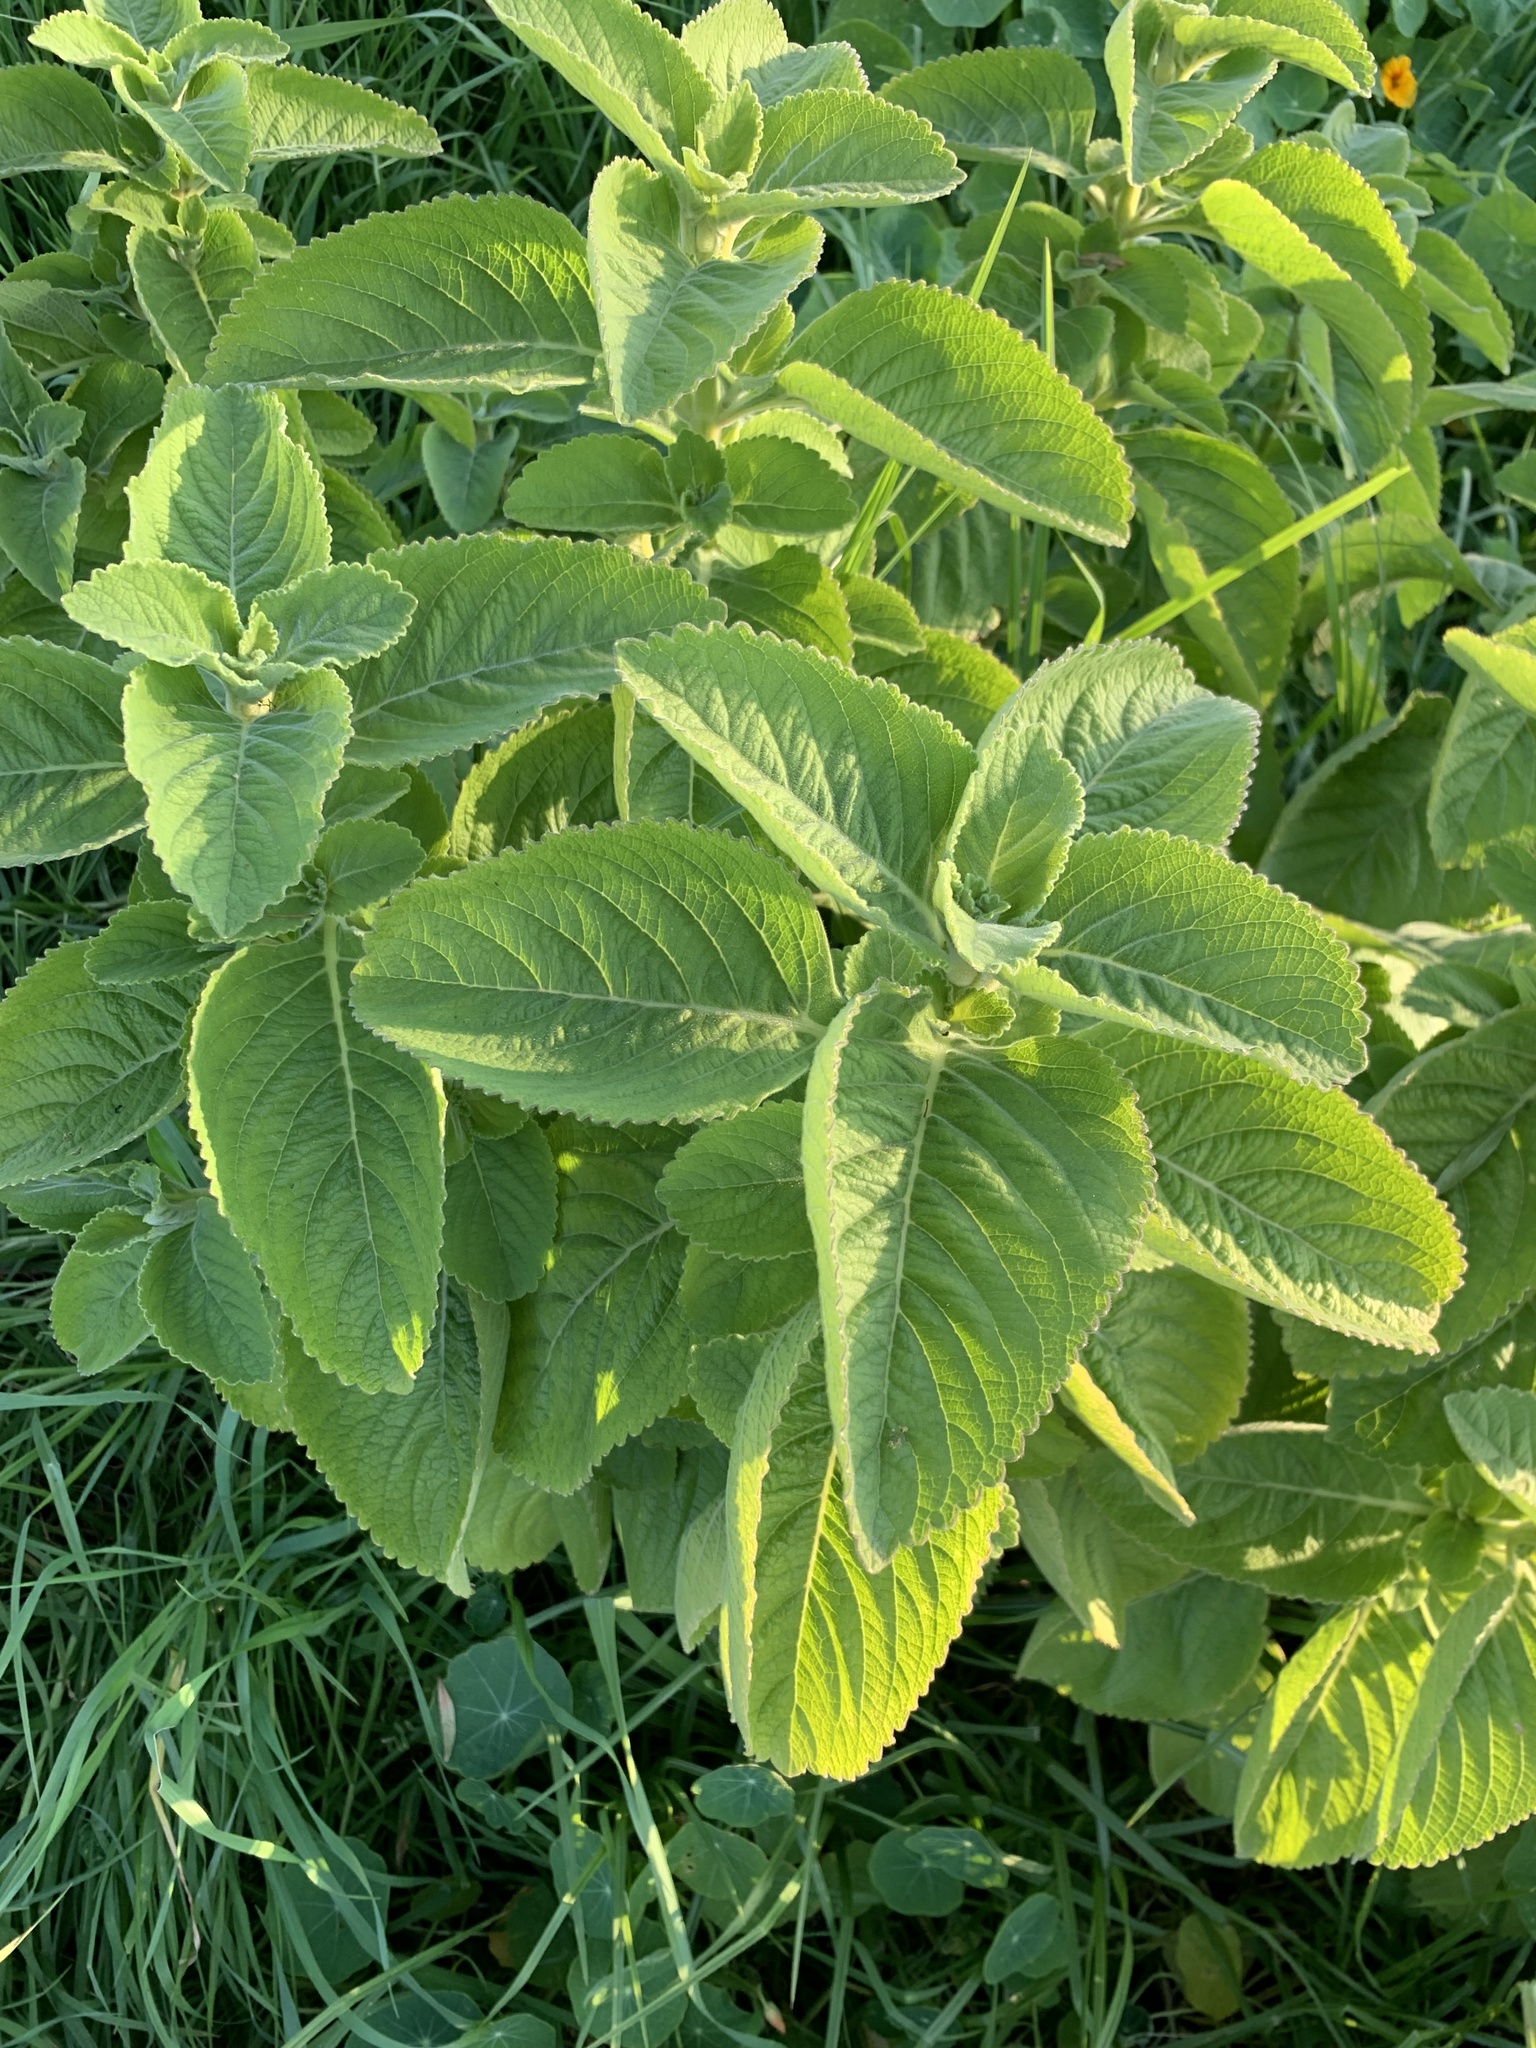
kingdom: Plantae
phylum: Tracheophyta
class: Magnoliopsida
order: Lamiales
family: Lamiaceae
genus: Coleus
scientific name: Coleus barbatus
